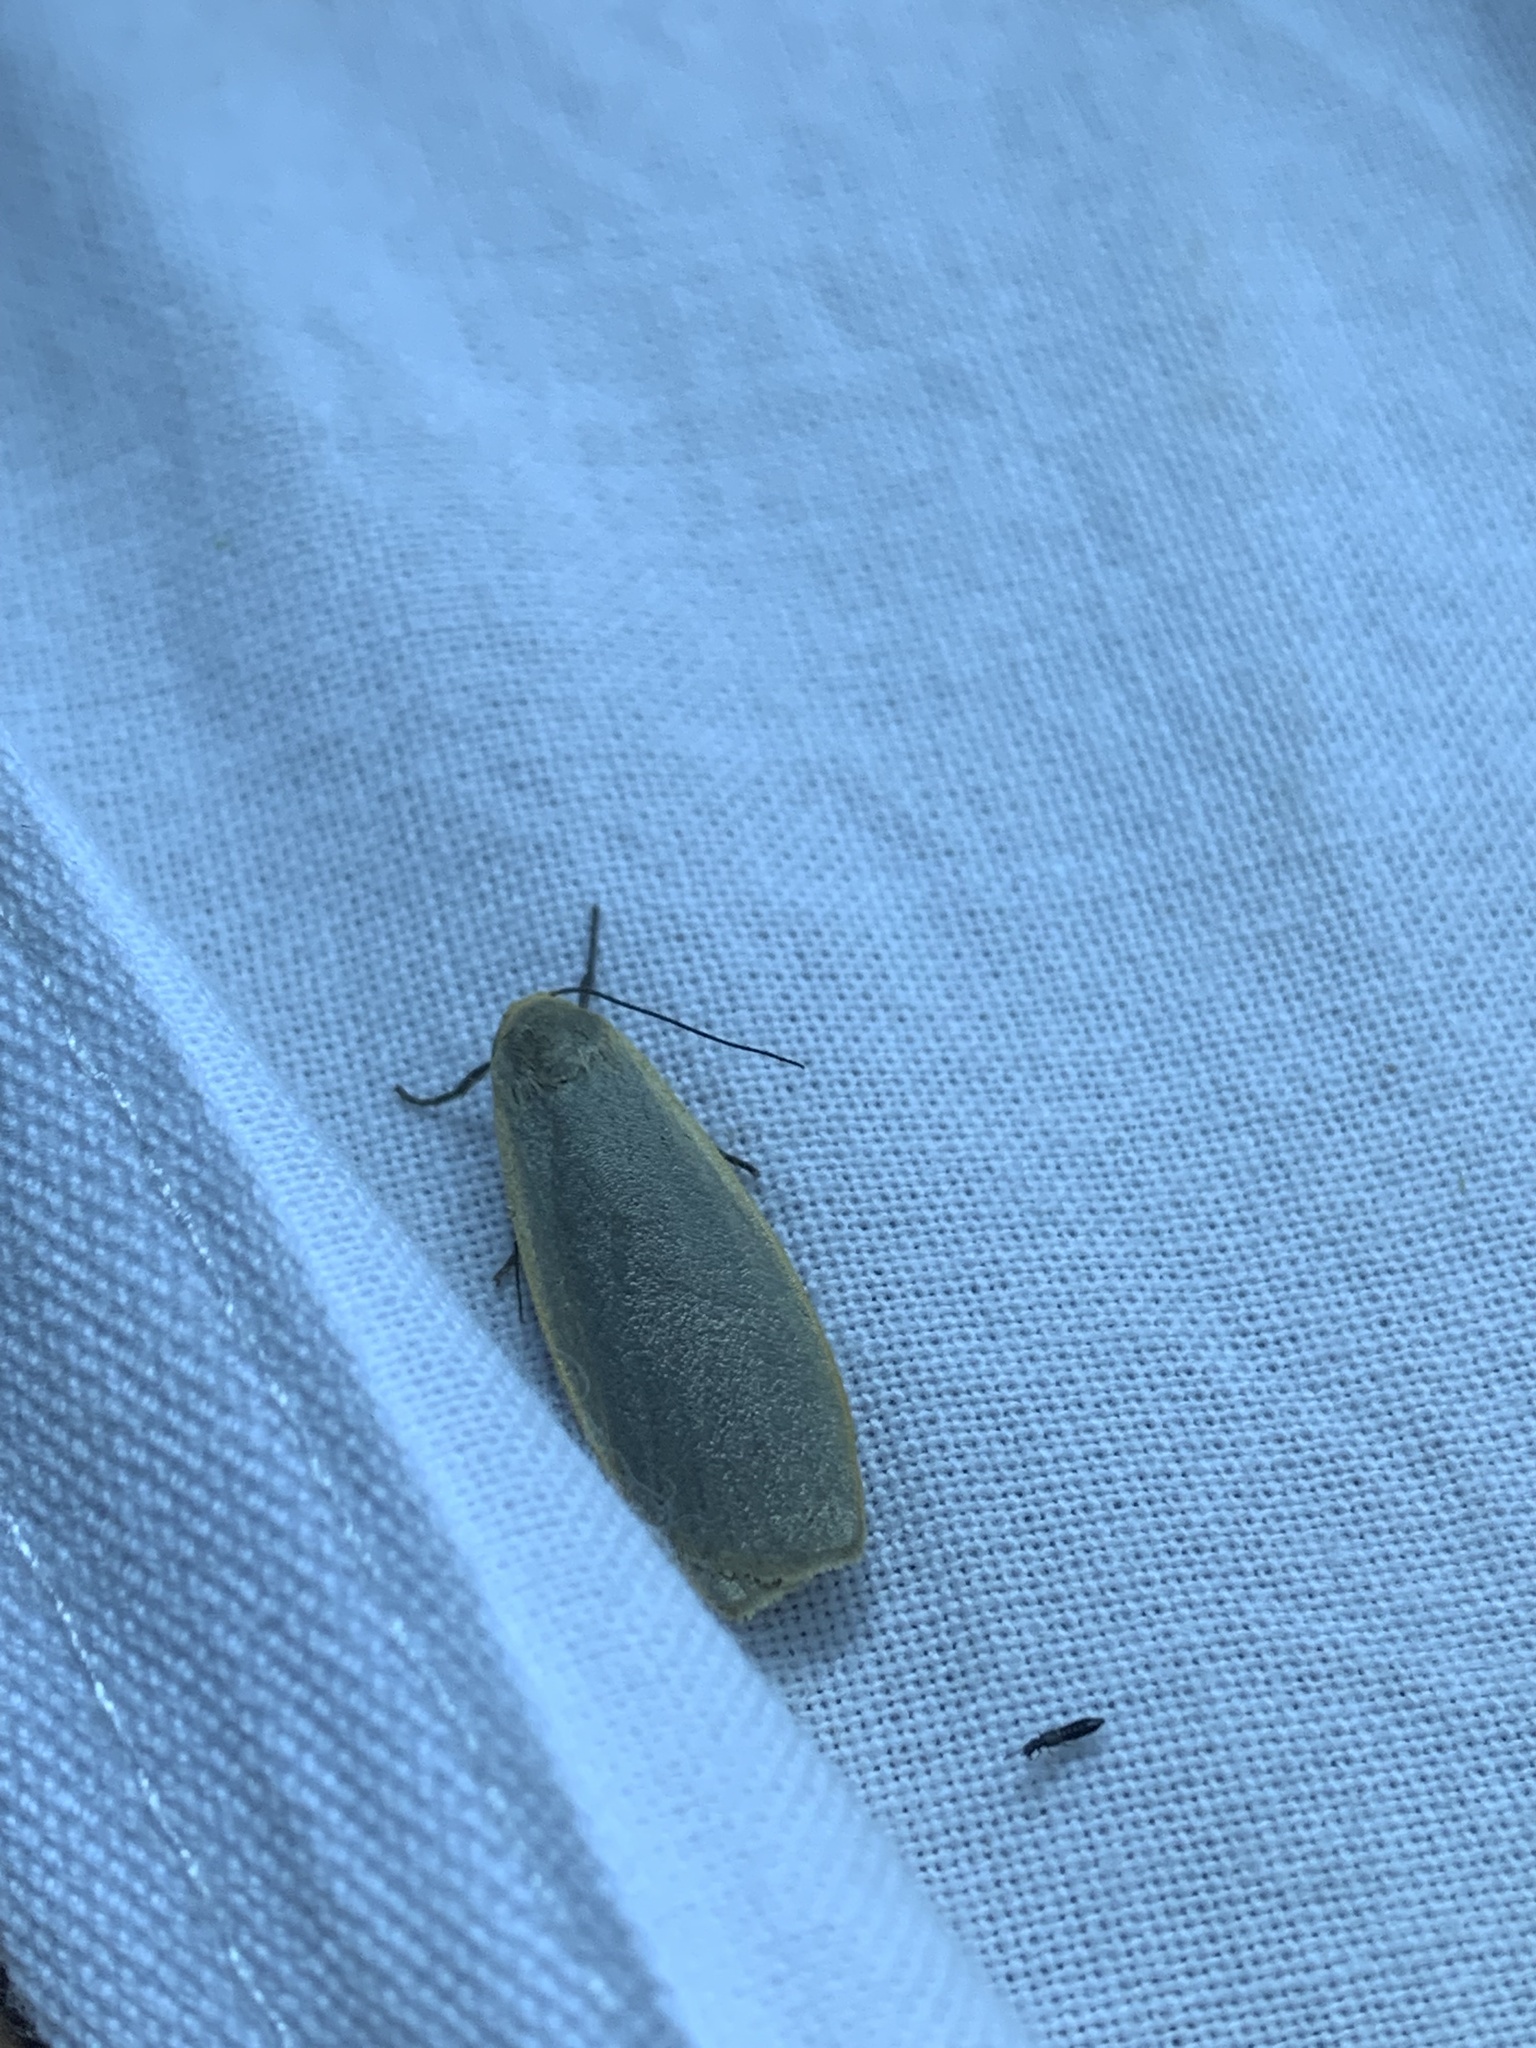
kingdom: Animalia
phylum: Arthropoda
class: Insecta
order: Lepidoptera
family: Erebidae
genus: Collita
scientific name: Collita griseola
